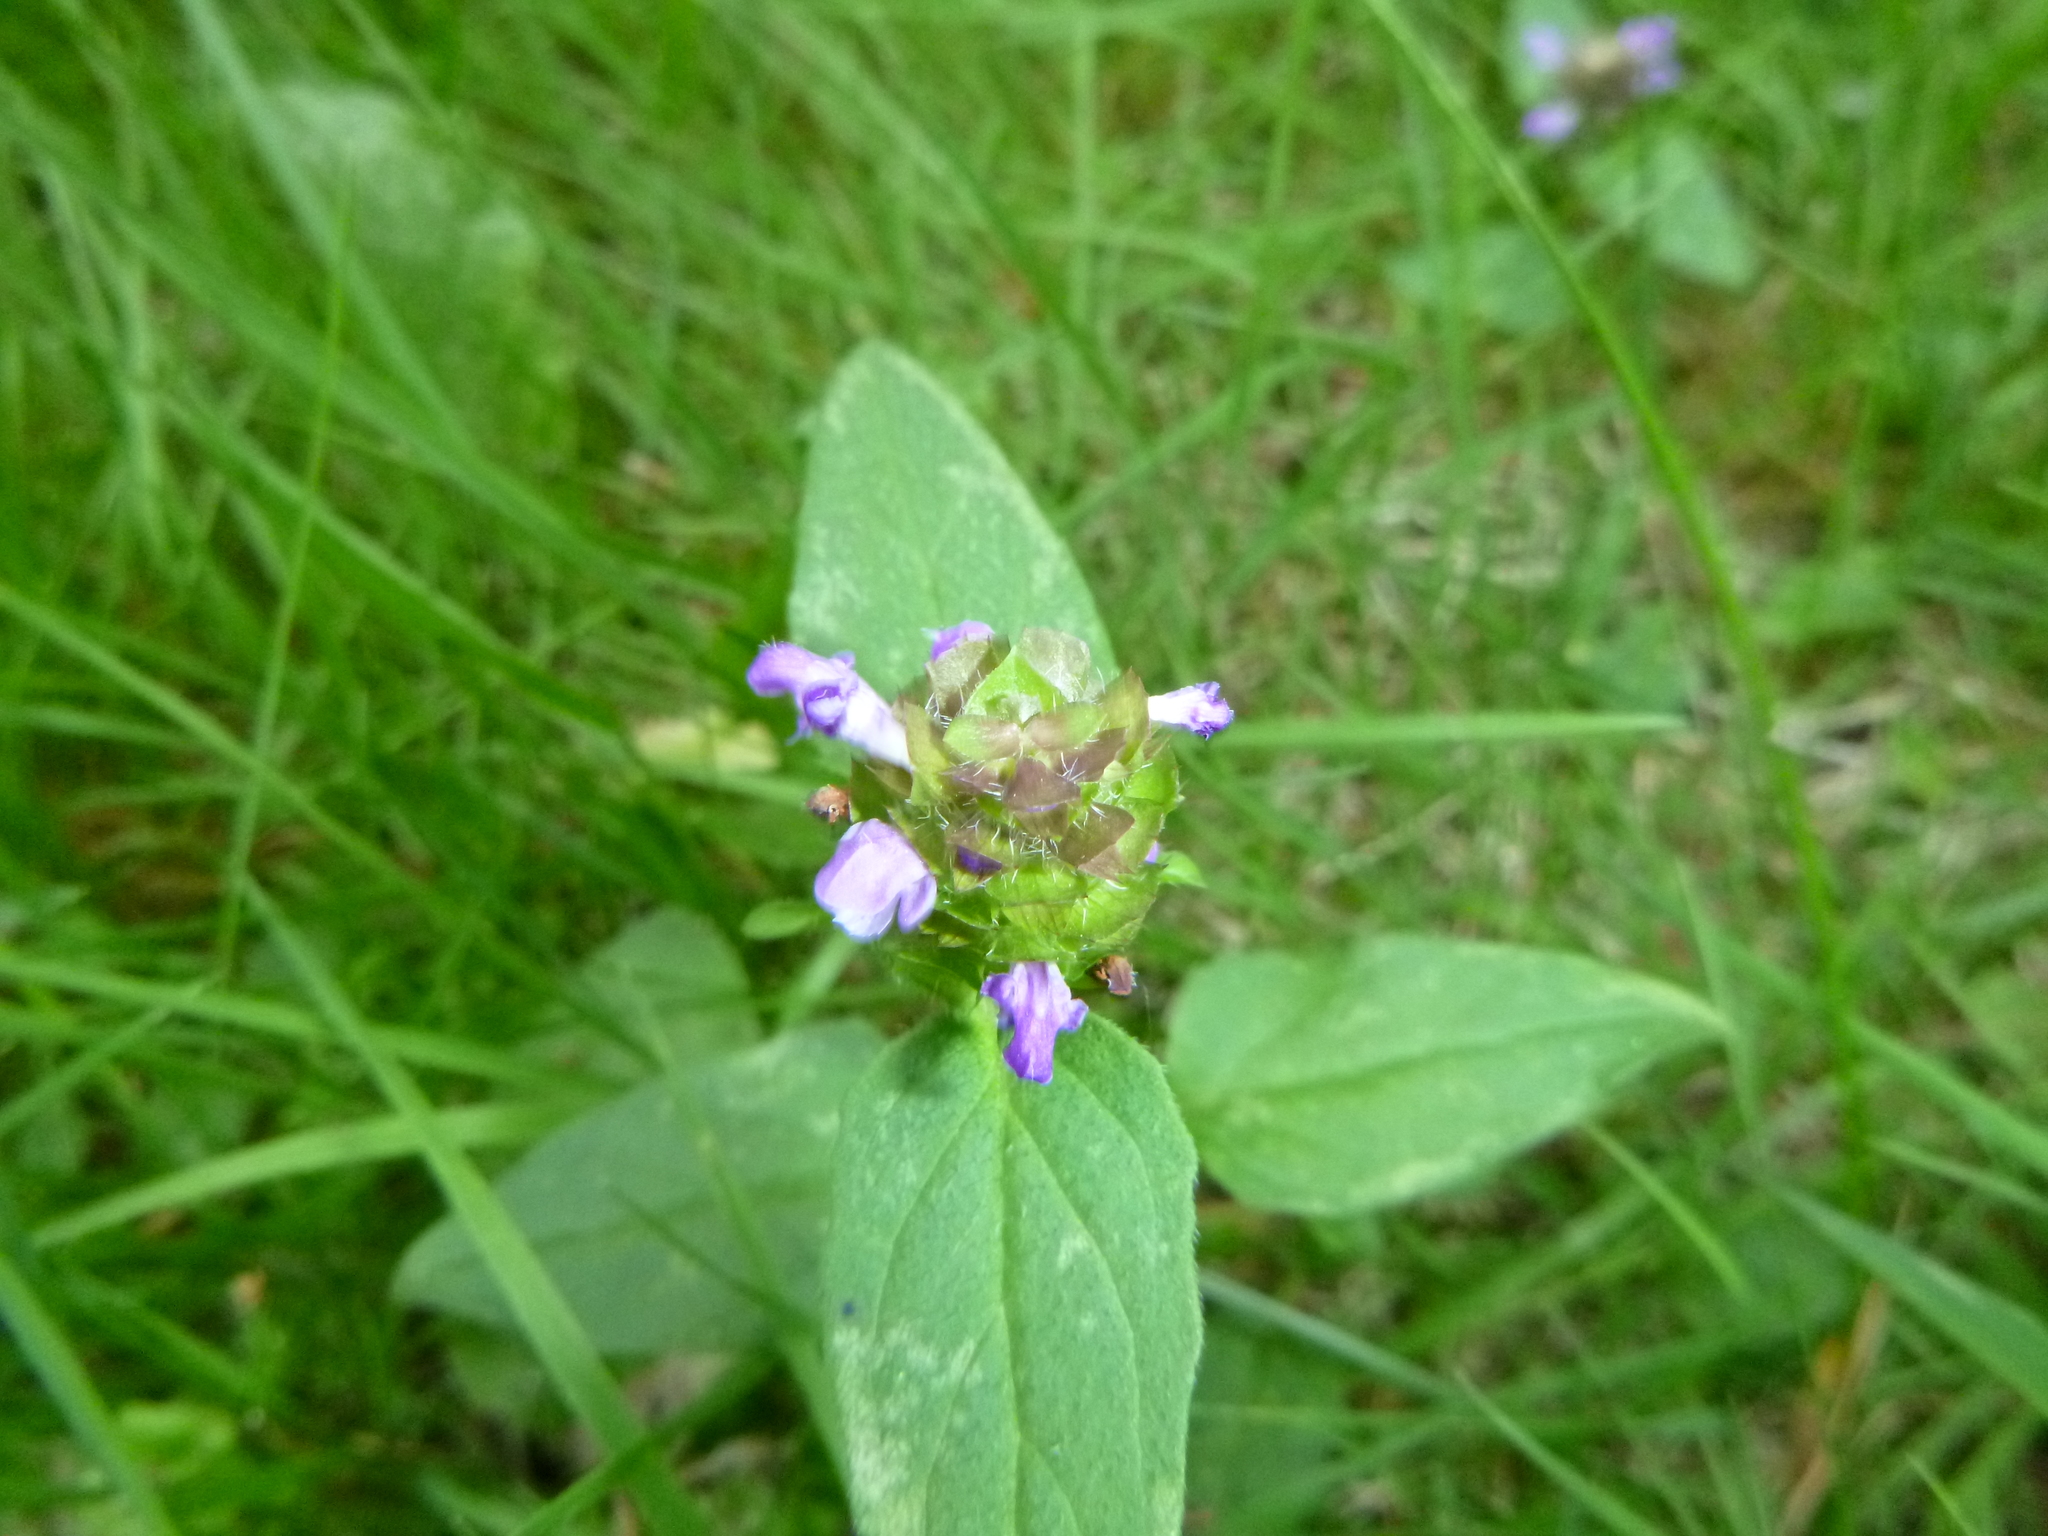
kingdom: Plantae
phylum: Tracheophyta
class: Magnoliopsida
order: Lamiales
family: Lamiaceae
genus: Prunella
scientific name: Prunella vulgaris
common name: Heal-all
